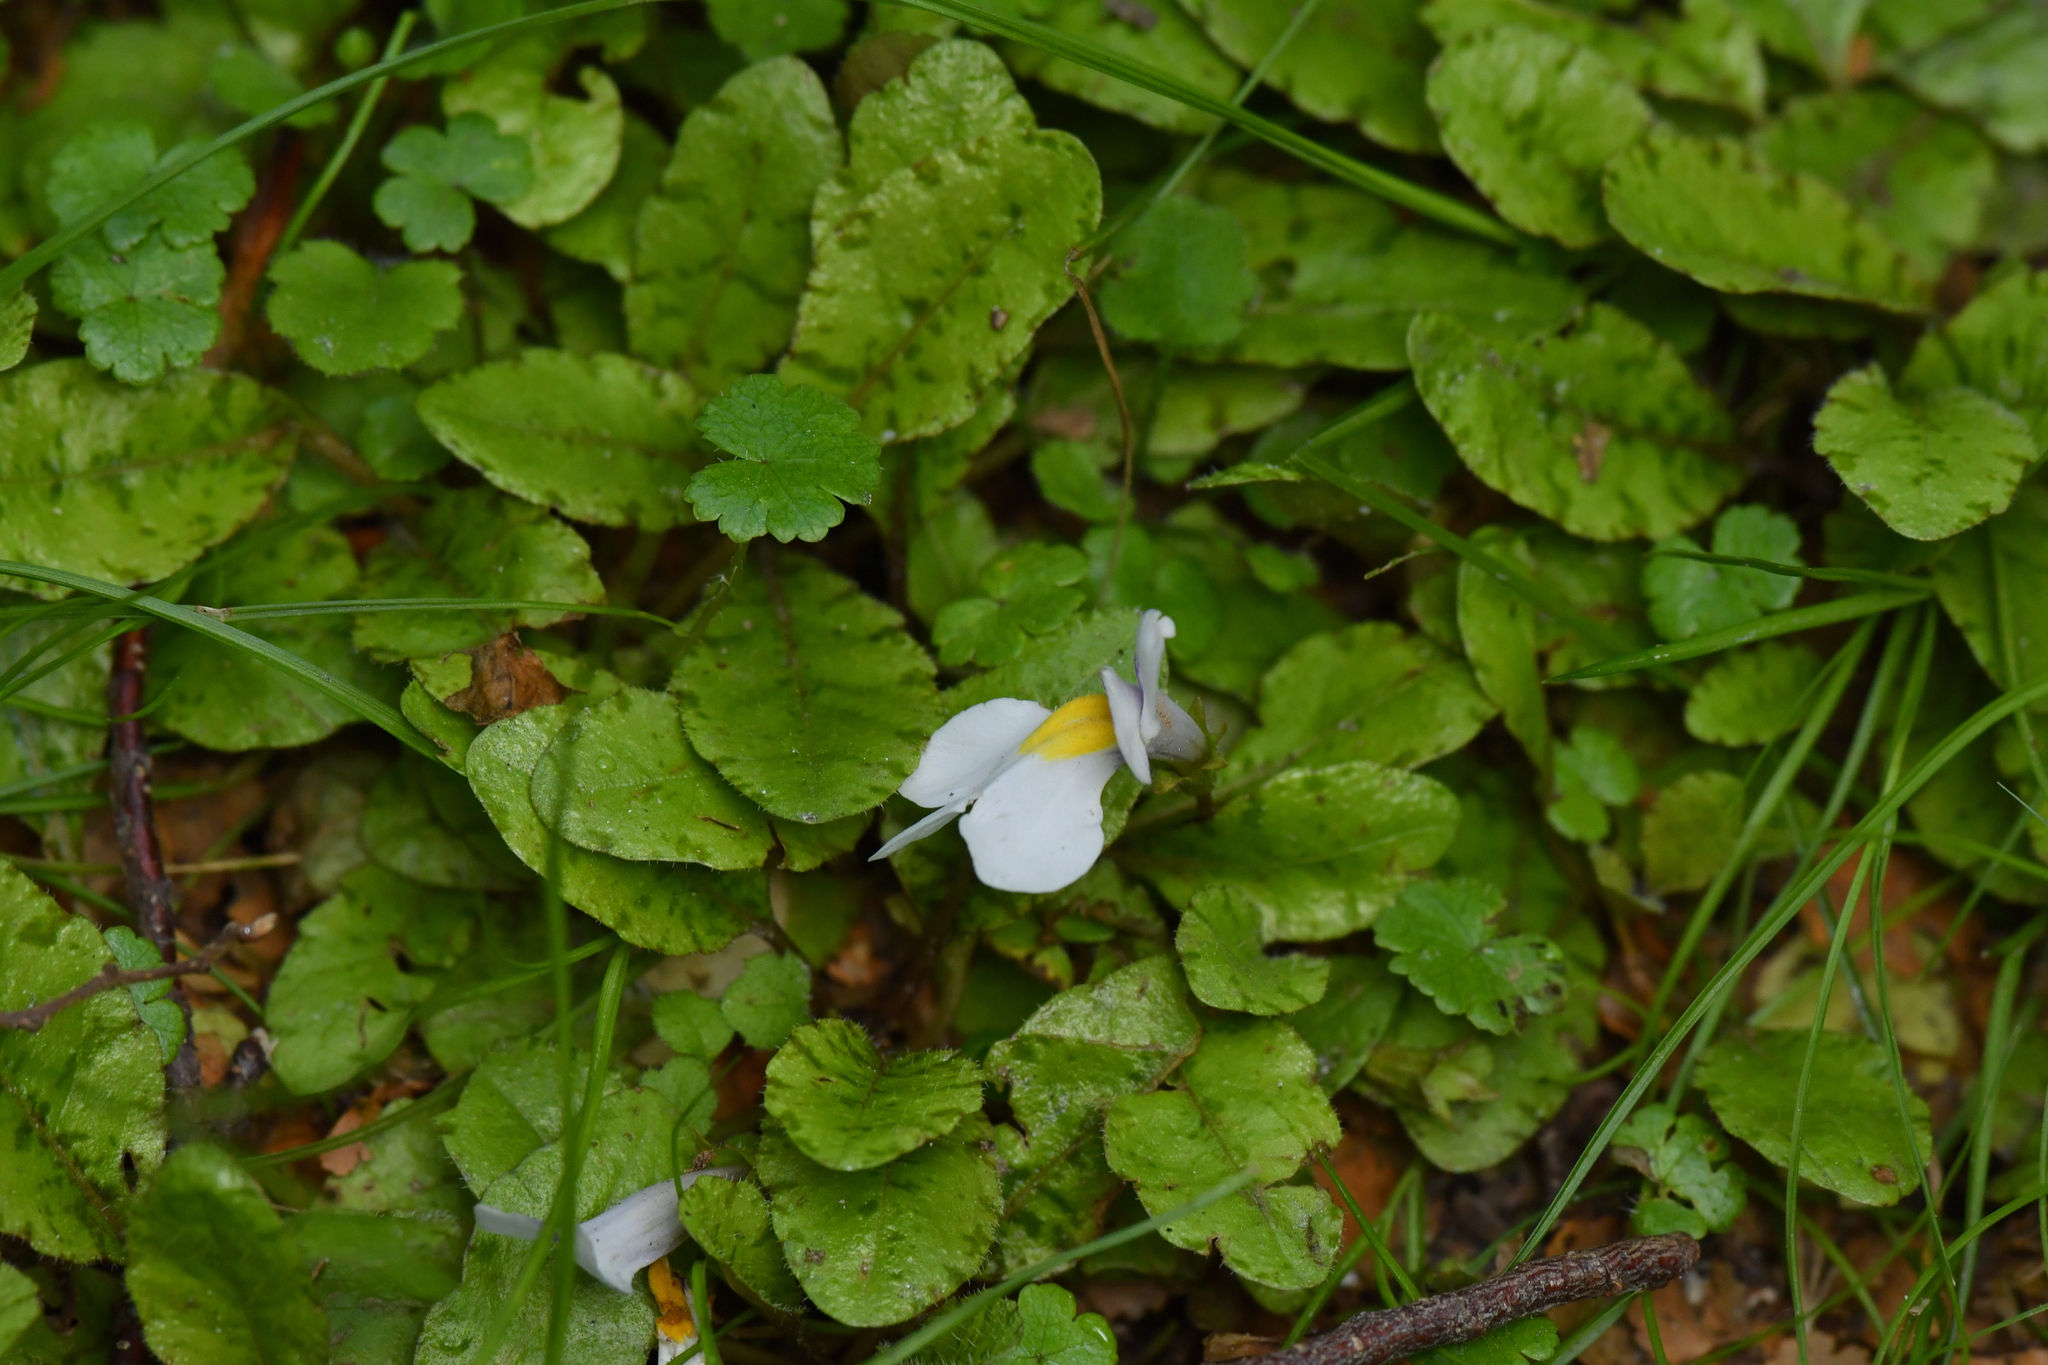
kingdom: Plantae
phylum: Tracheophyta
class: Magnoliopsida
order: Lamiales
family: Mazaceae
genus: Mazus
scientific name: Mazus radicans
